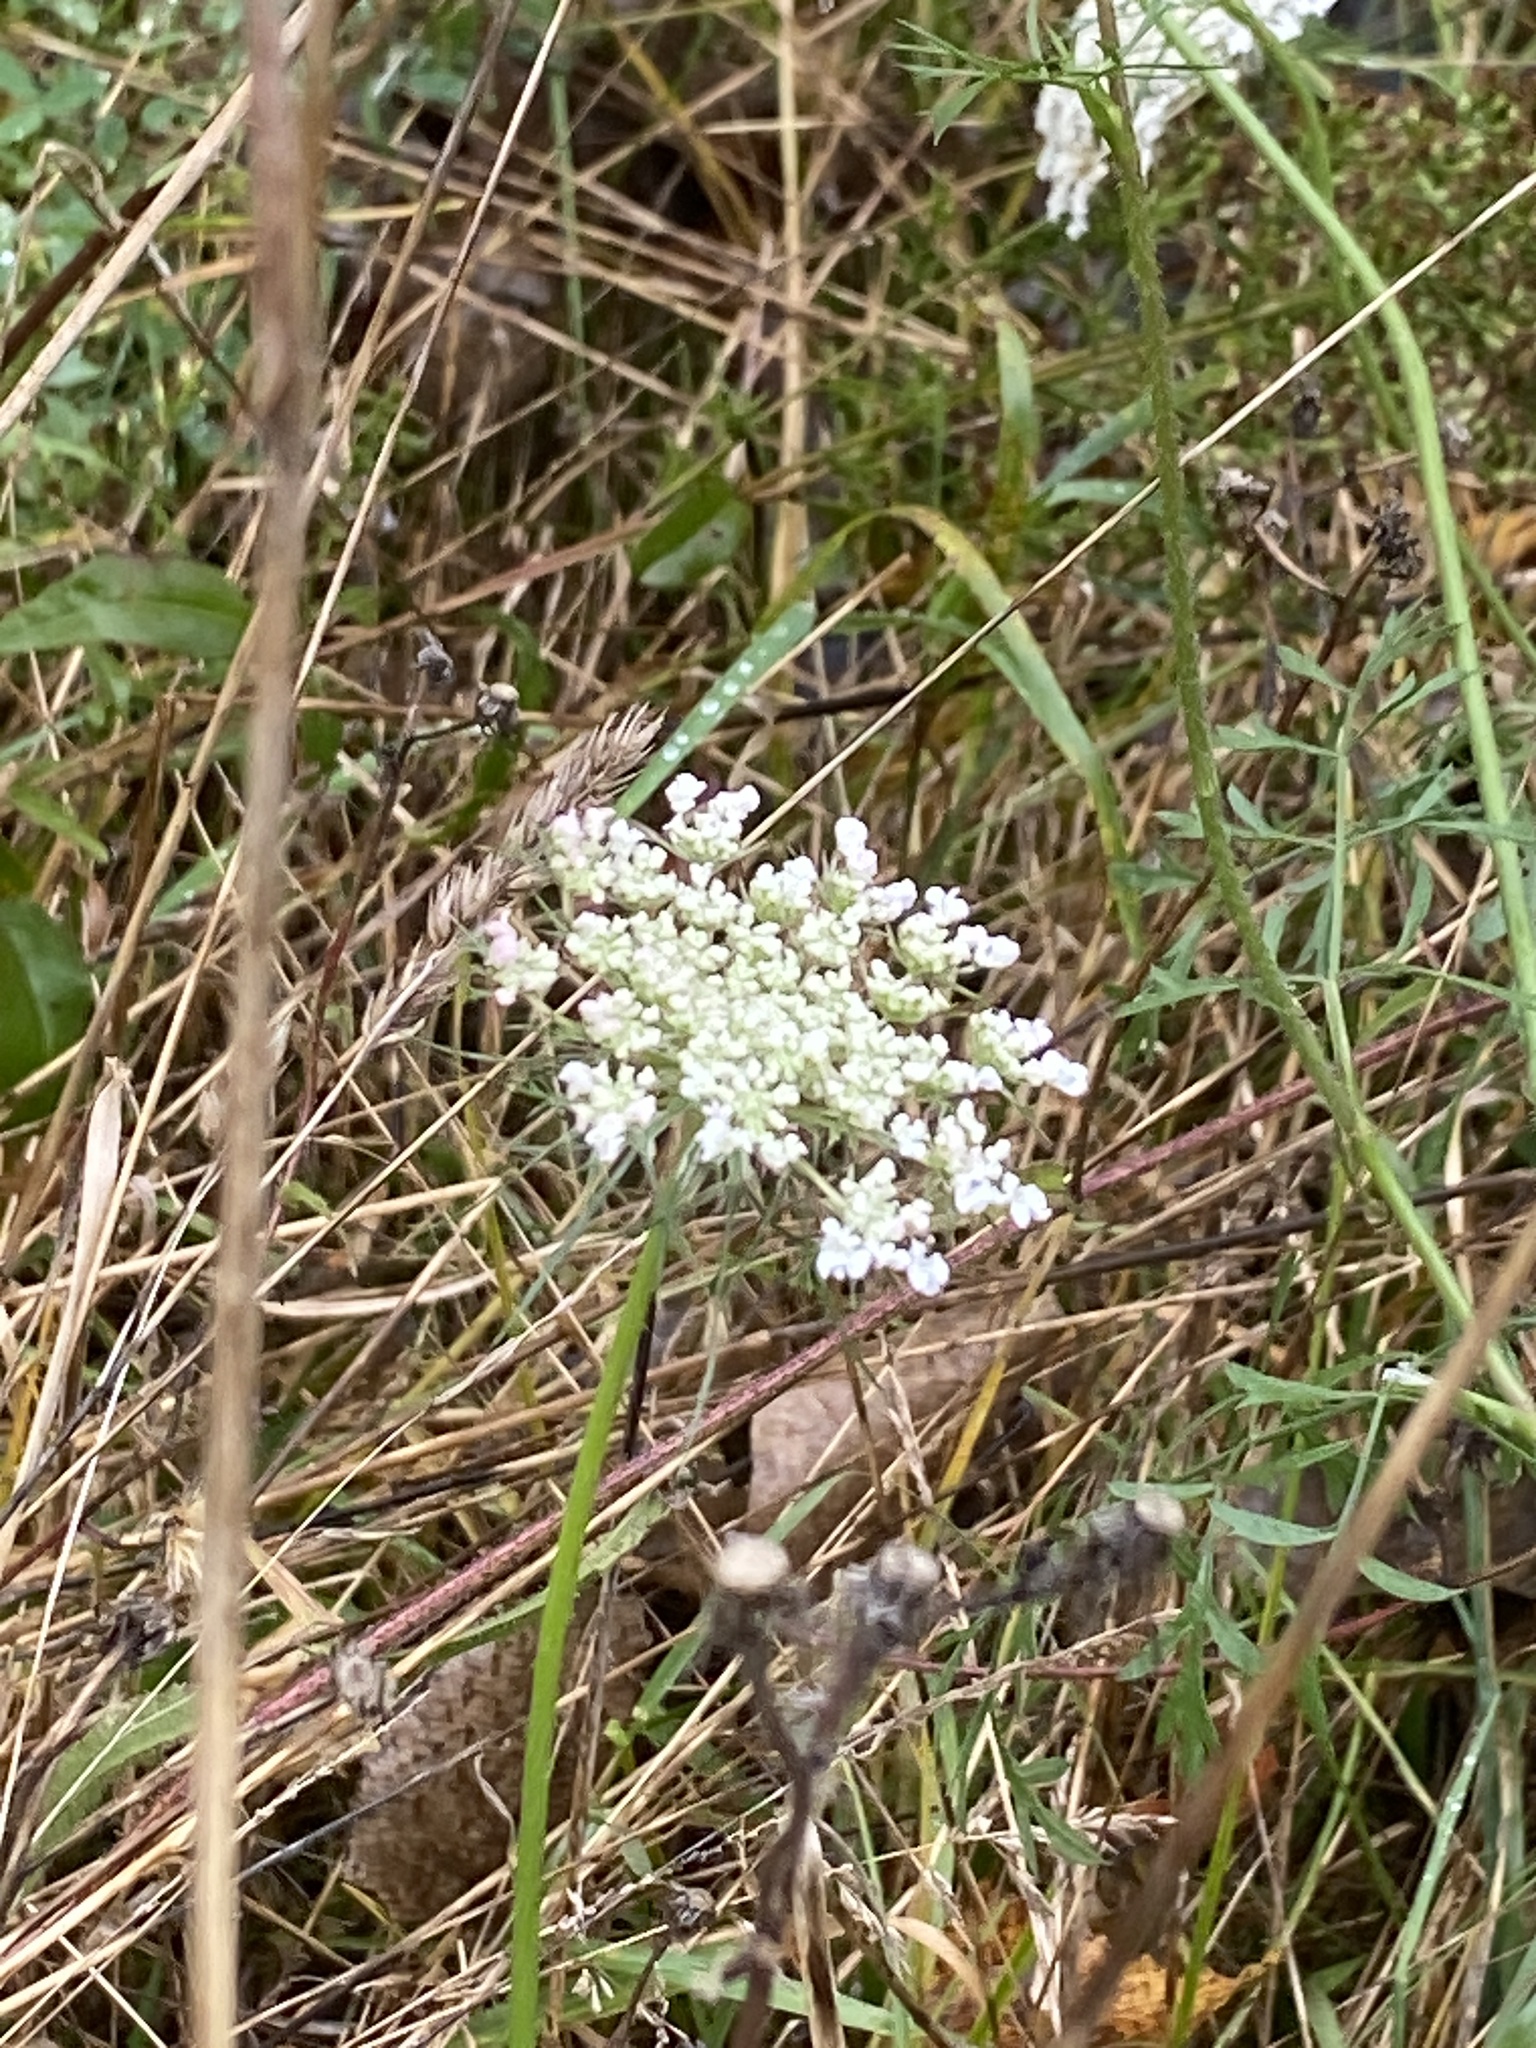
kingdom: Plantae
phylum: Tracheophyta
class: Magnoliopsida
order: Apiales
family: Apiaceae
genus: Daucus
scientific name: Daucus carota
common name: Wild carrot
